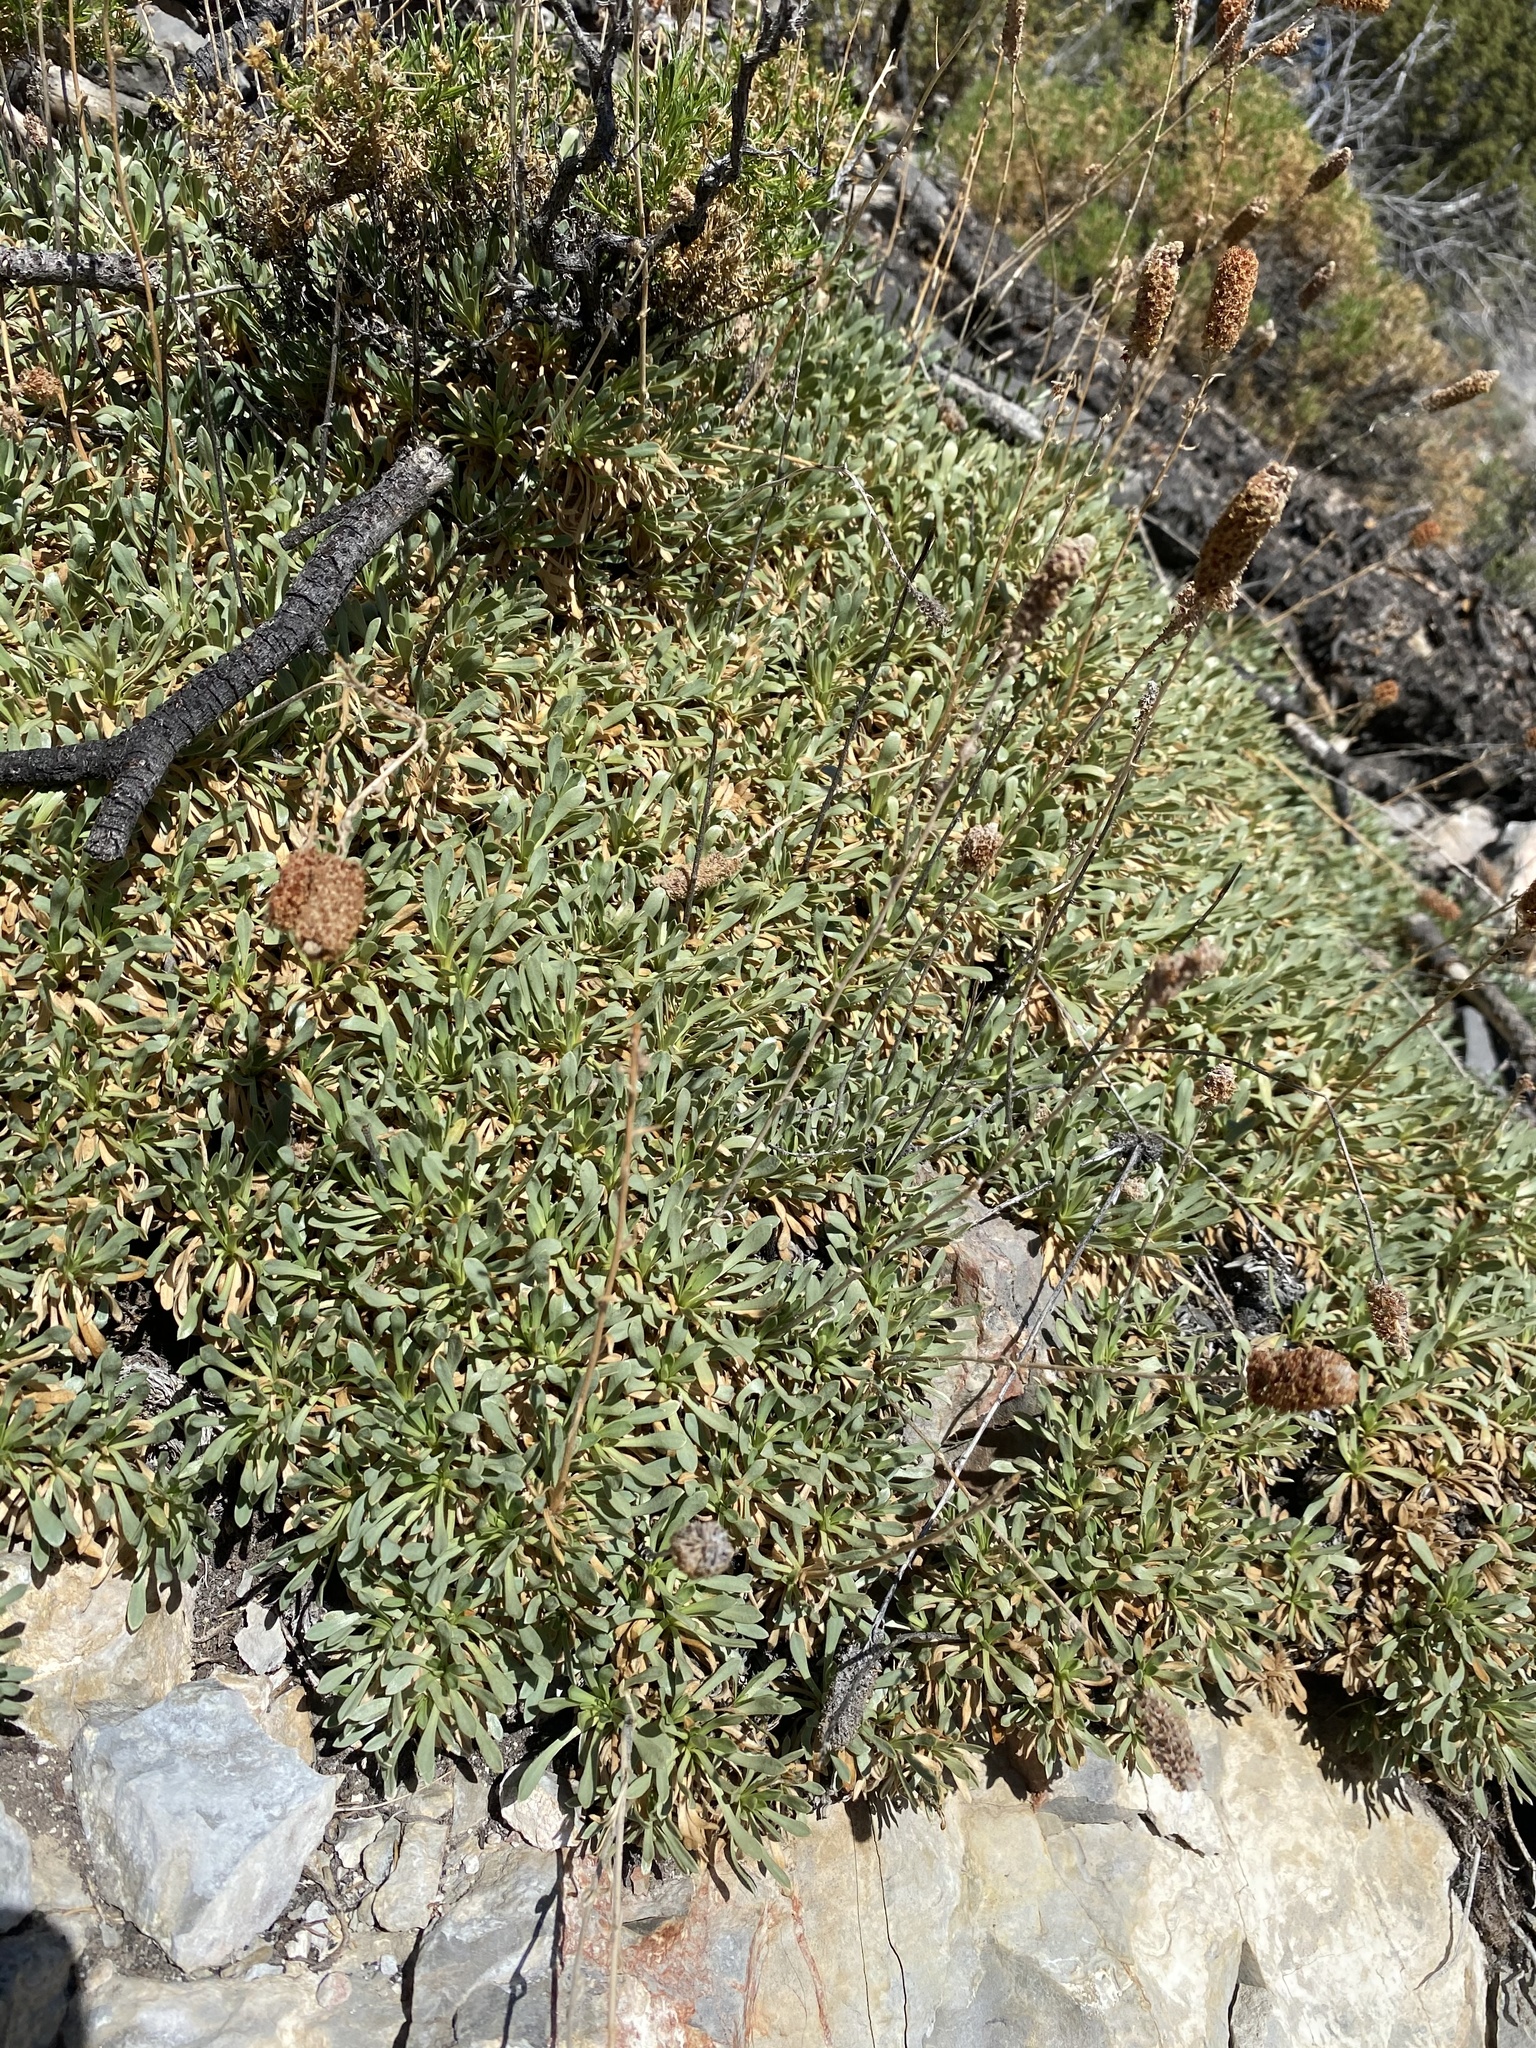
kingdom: Plantae
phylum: Tracheophyta
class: Magnoliopsida
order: Rosales
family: Rosaceae
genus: Petrophytum
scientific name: Petrophytum caespitosum
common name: Mat rockspirea
